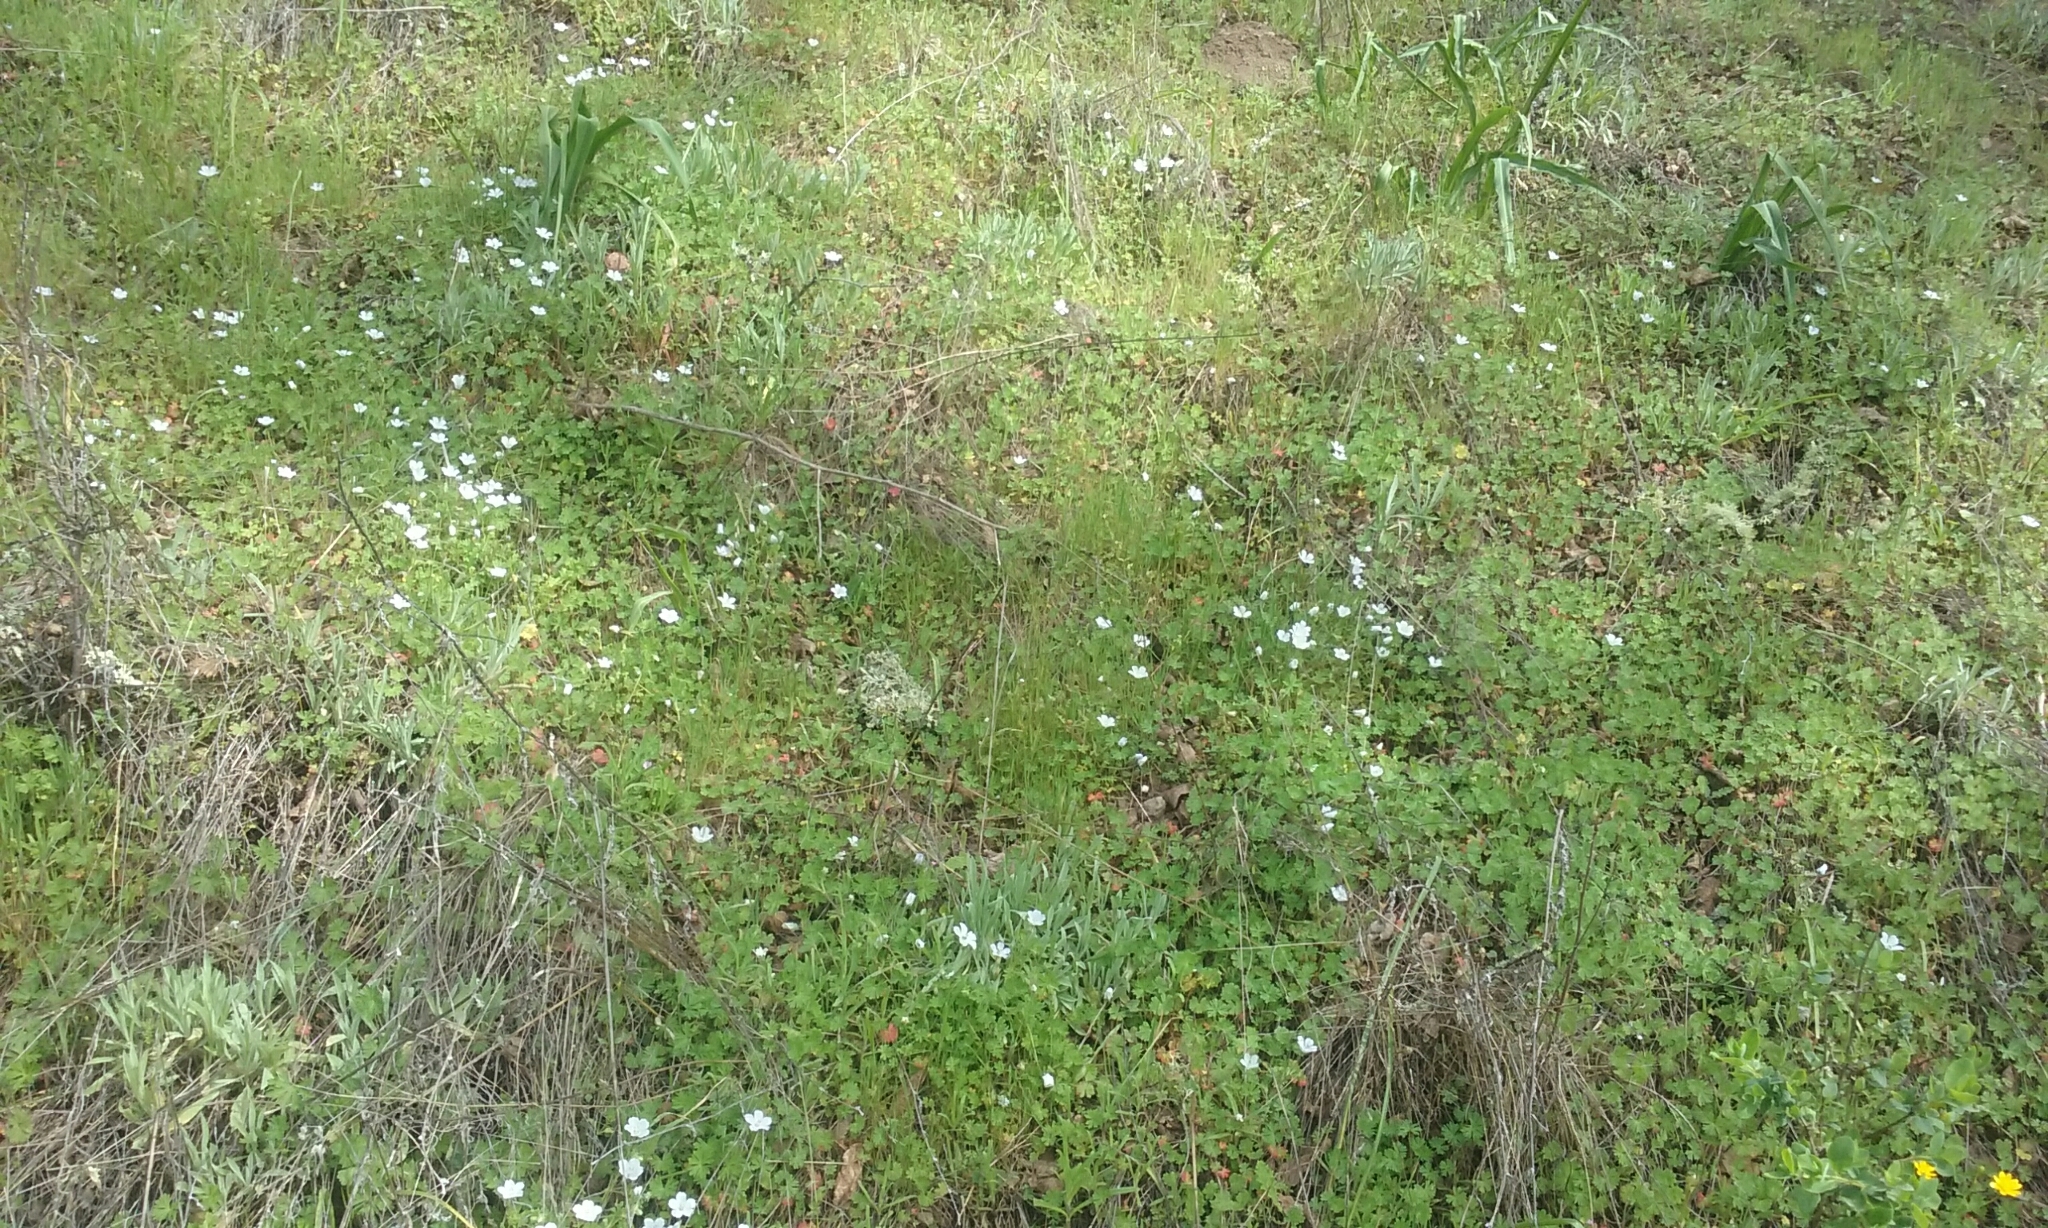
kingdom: Plantae
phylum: Tracheophyta
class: Magnoliopsida
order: Boraginales
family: Hydrophyllaceae
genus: Nemophila
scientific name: Nemophila menziesii
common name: Baby's-blue-eyes
